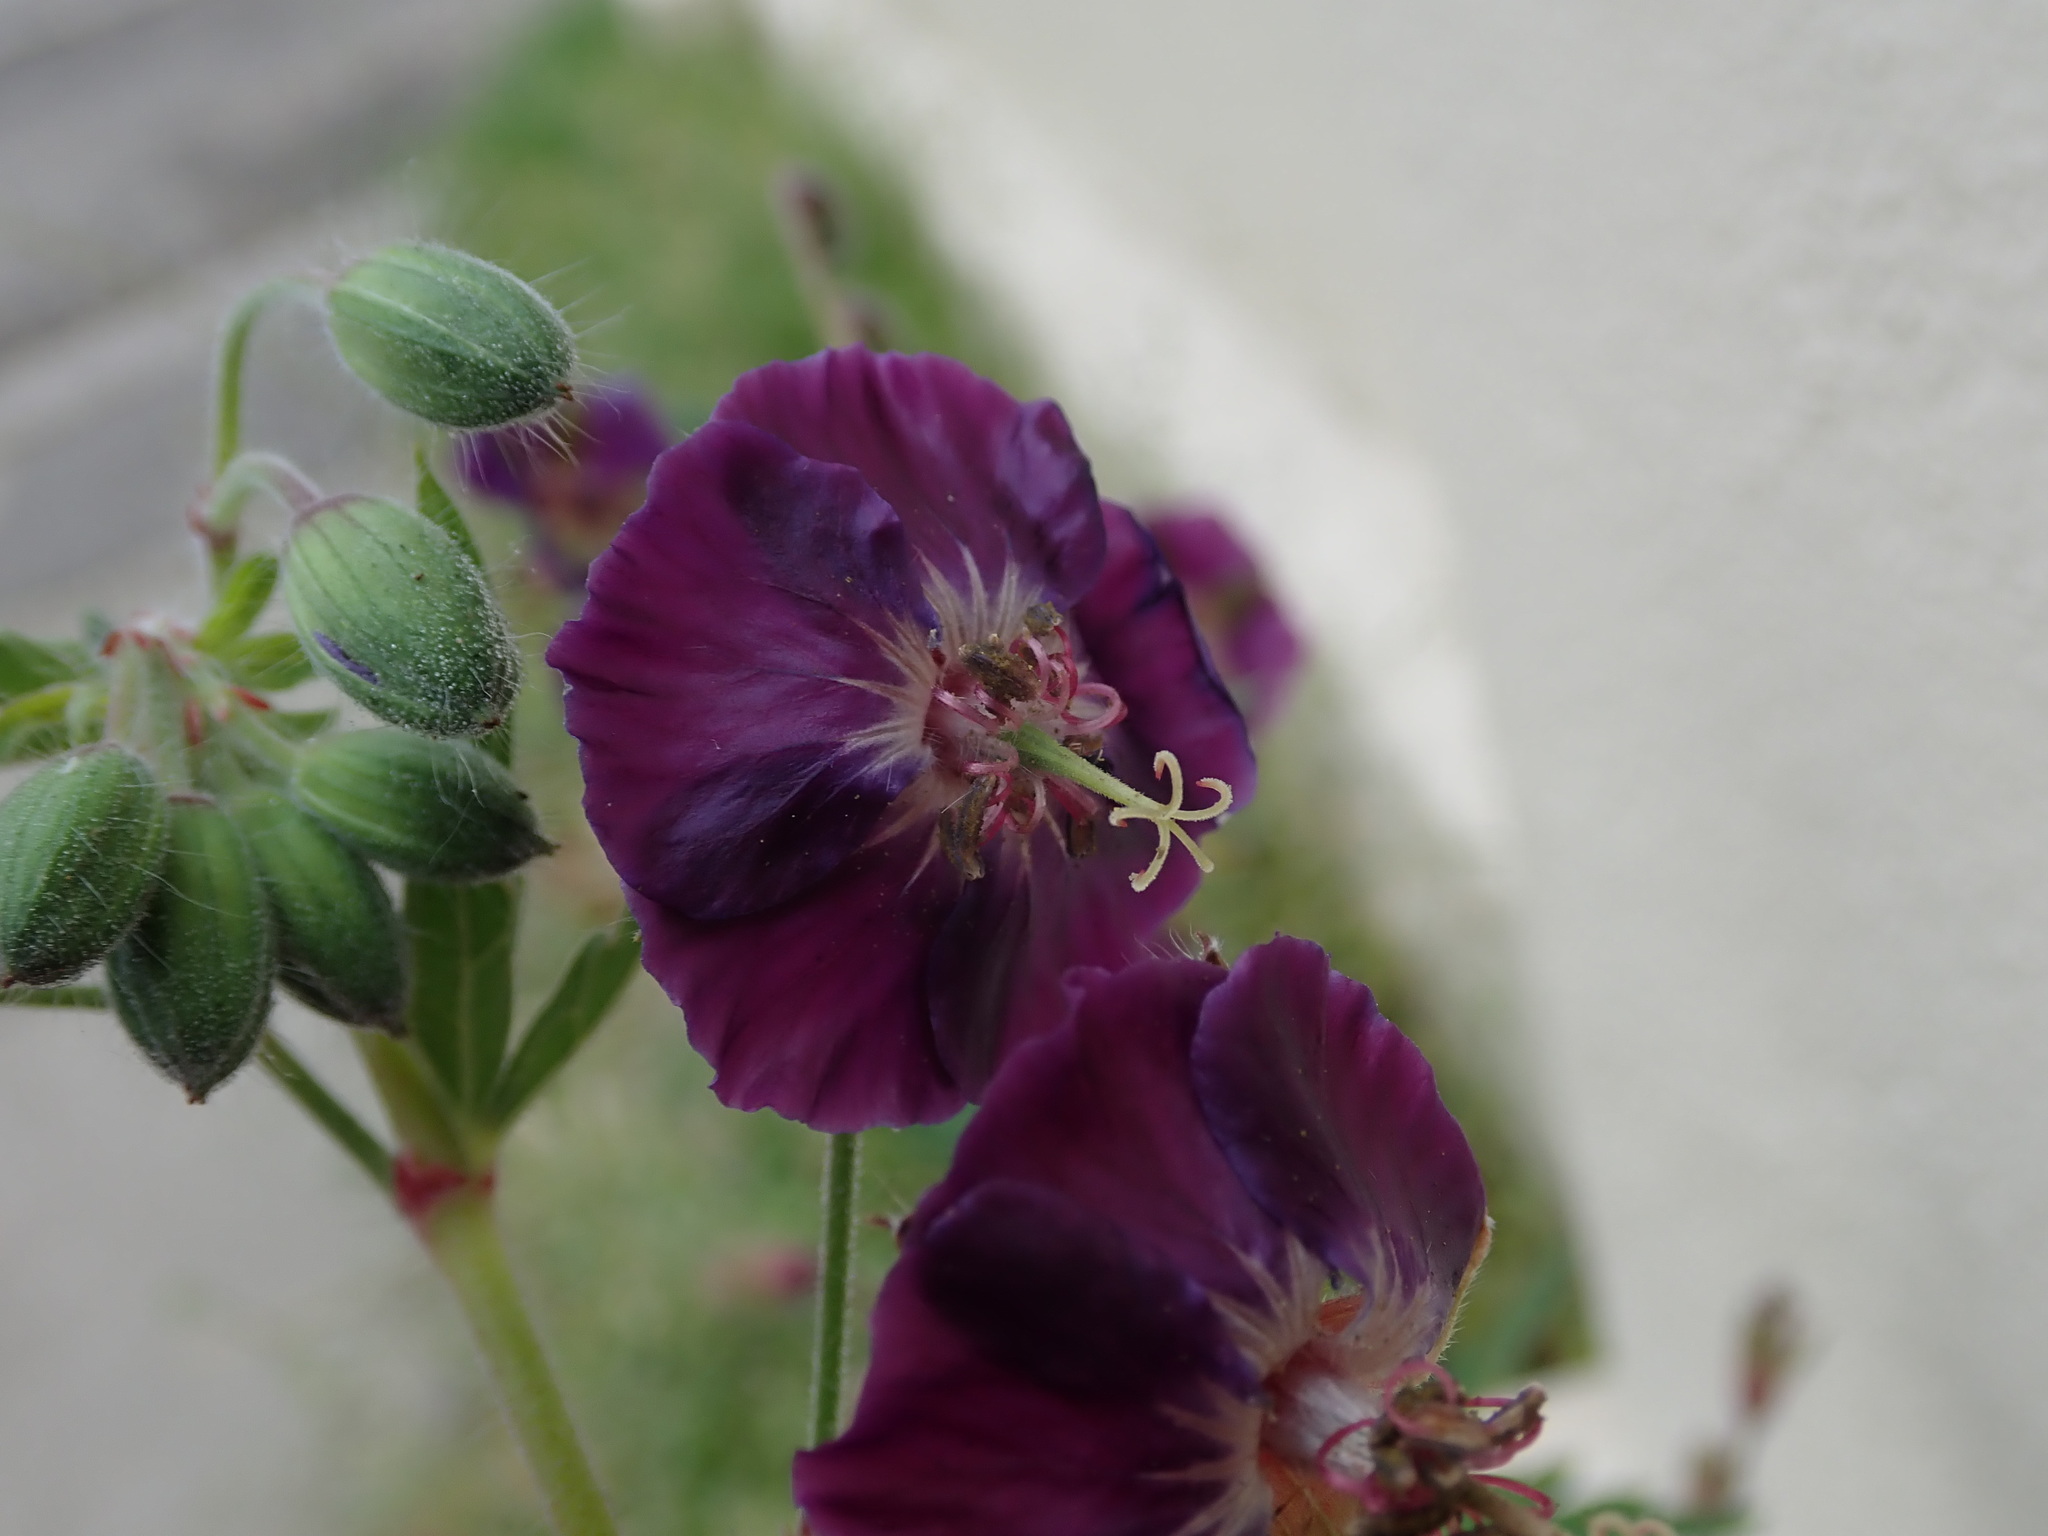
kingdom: Plantae
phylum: Tracheophyta
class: Magnoliopsida
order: Geraniales
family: Geraniaceae
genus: Geranium
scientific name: Geranium phaeum
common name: Dusky crane's-bill
